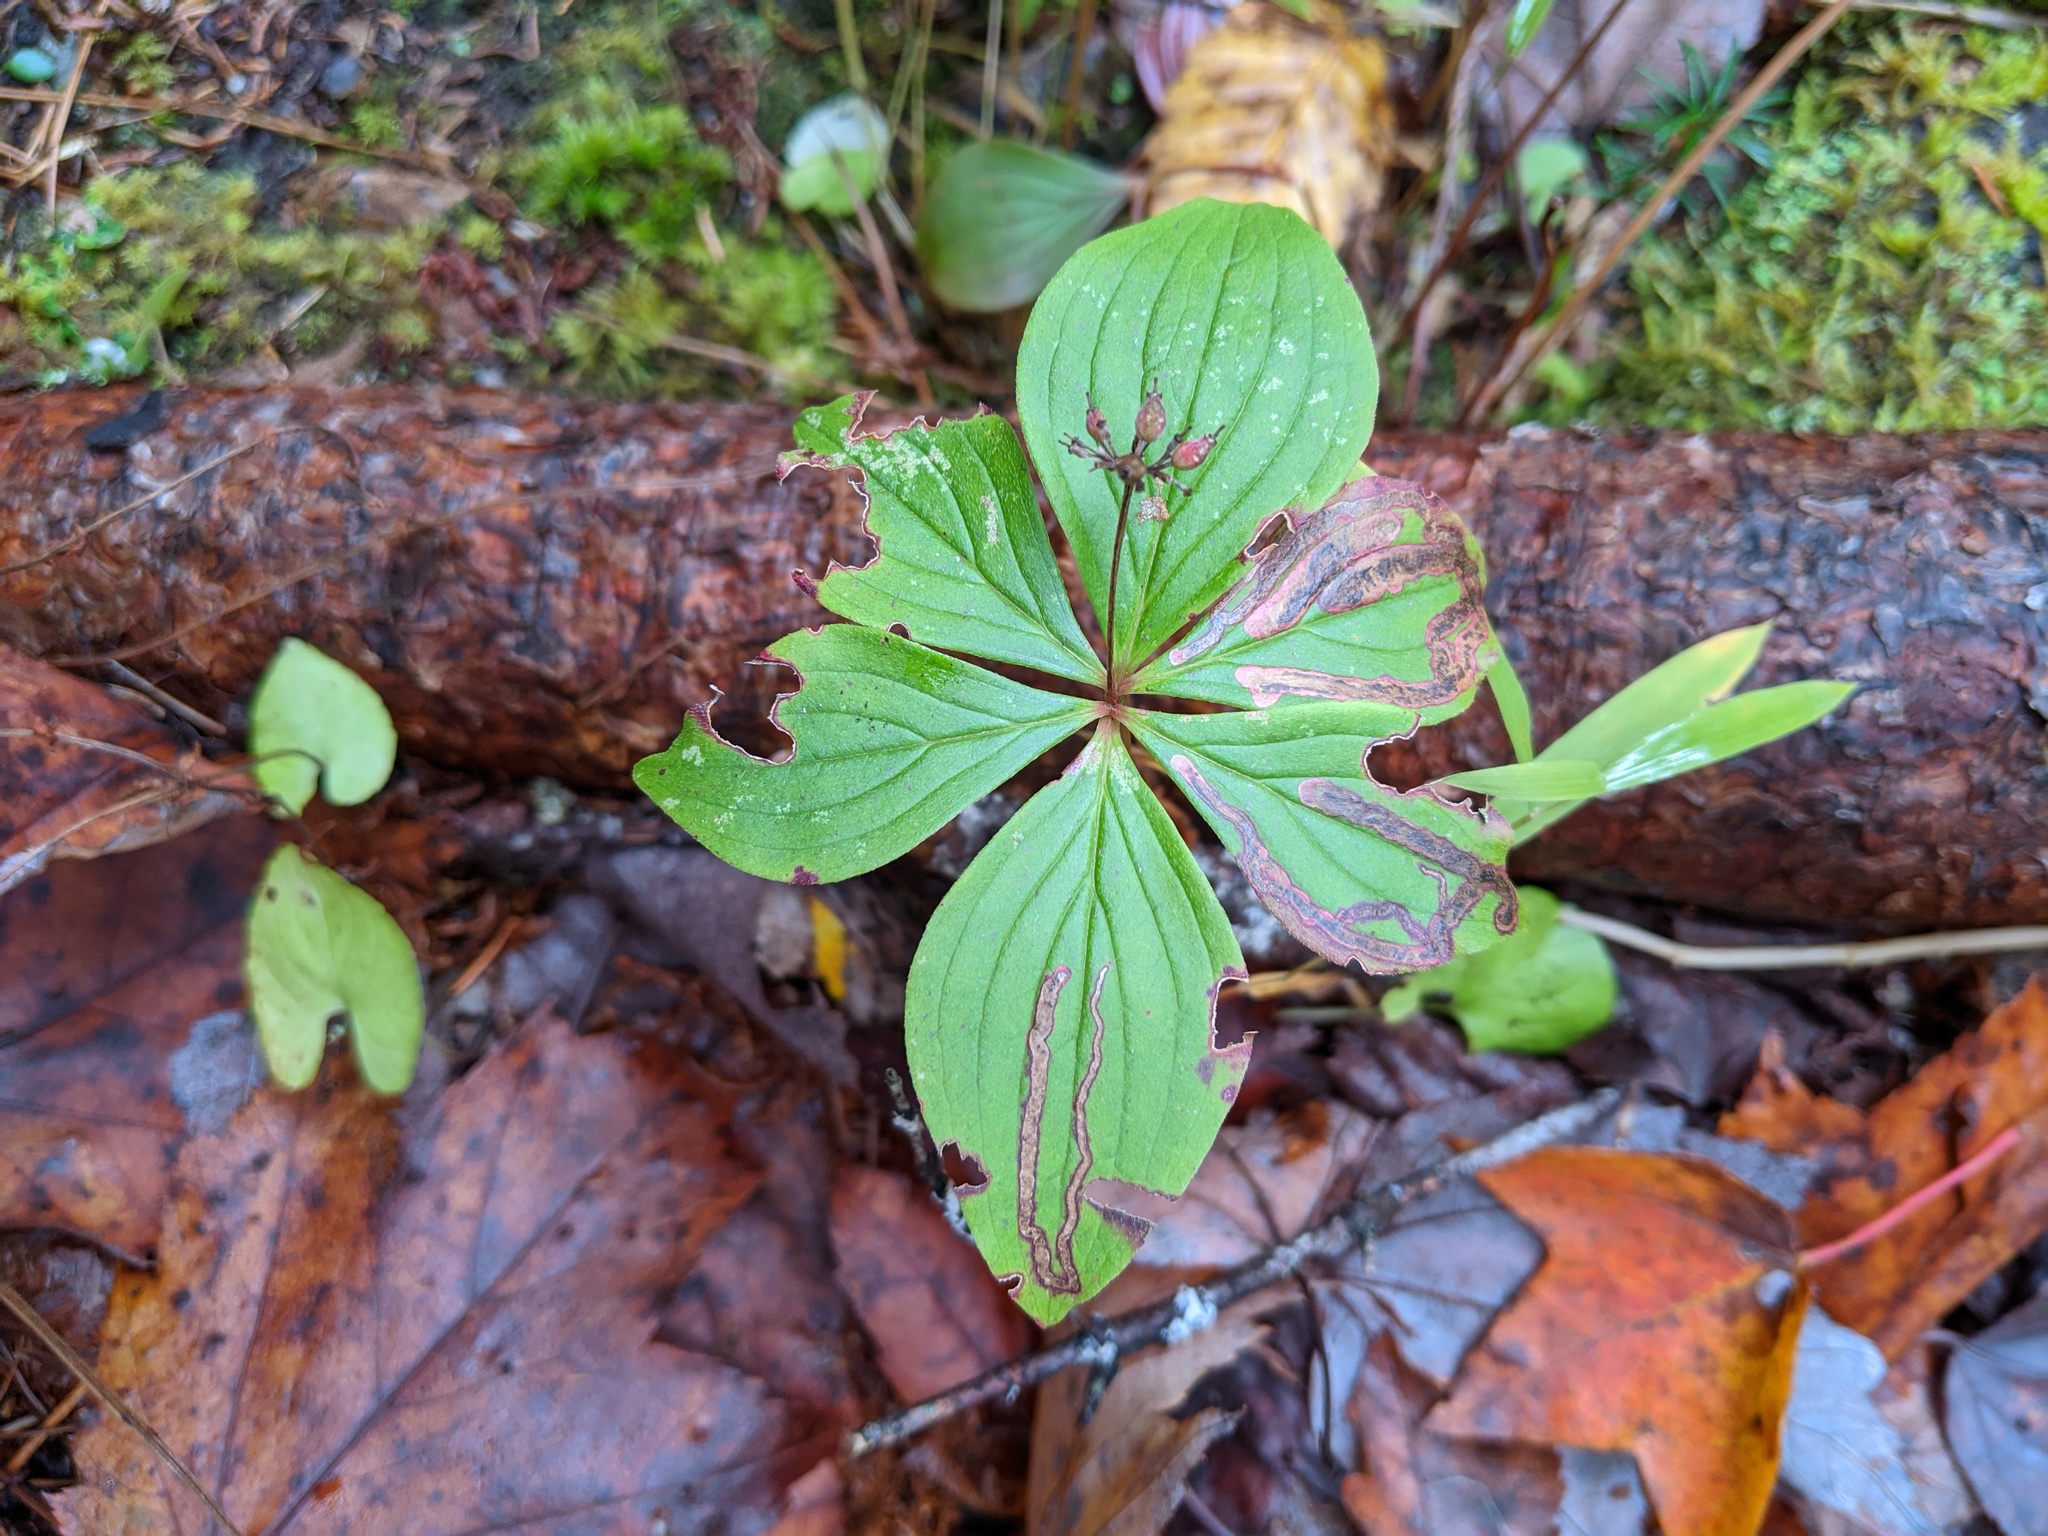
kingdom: Animalia
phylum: Arthropoda
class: Insecta
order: Diptera
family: Agromyzidae
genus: Phytomyza
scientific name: Phytomyza agromyzina
